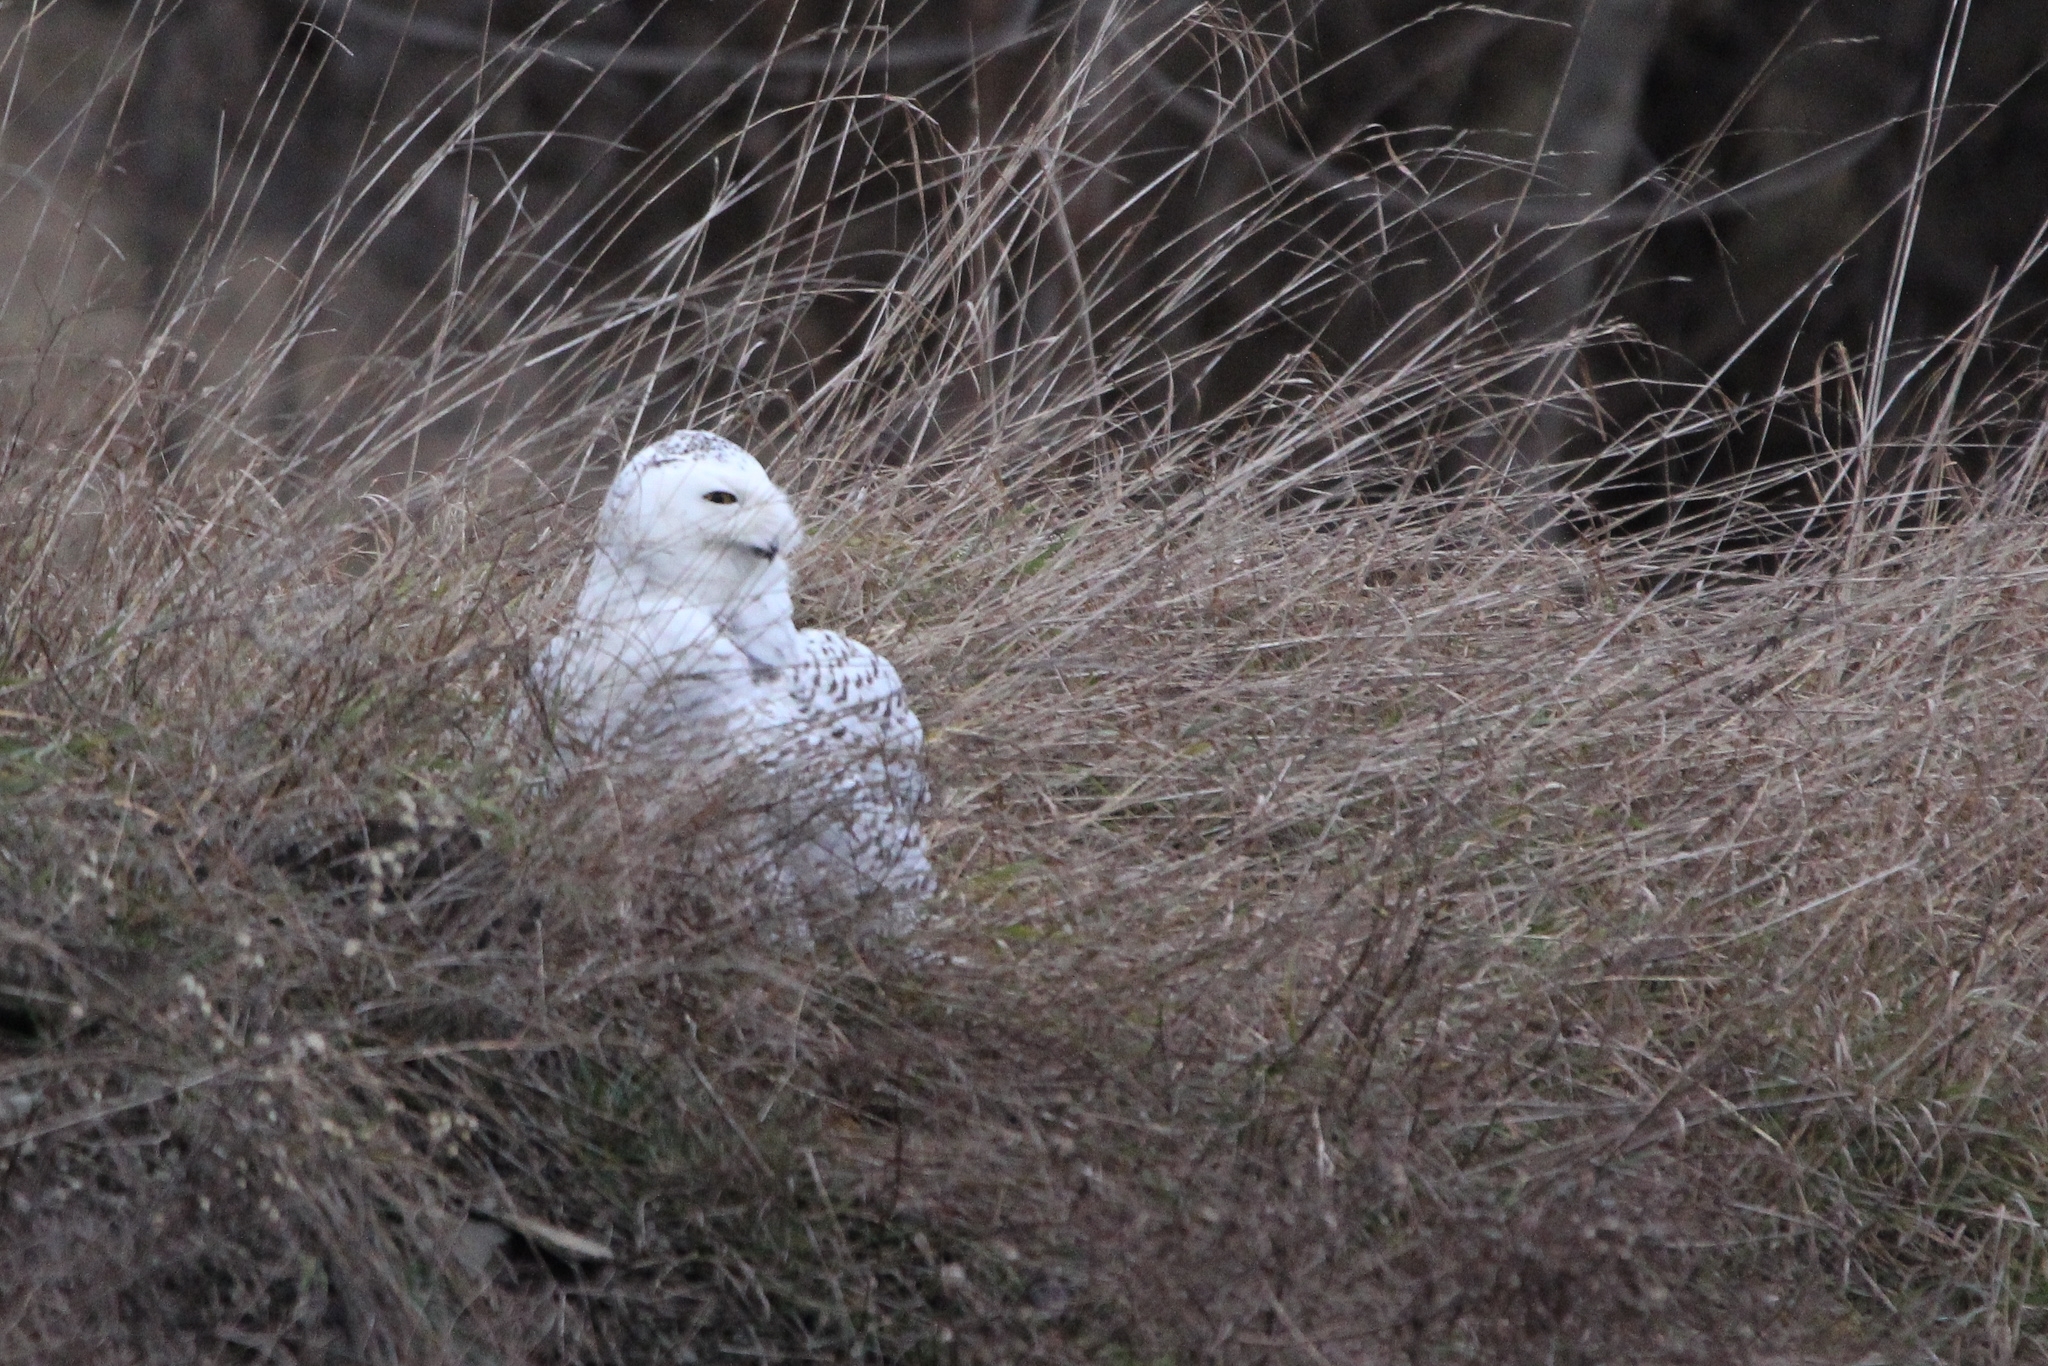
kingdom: Animalia
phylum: Chordata
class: Aves
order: Strigiformes
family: Strigidae
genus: Bubo
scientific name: Bubo scandiacus
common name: Snowy owl
